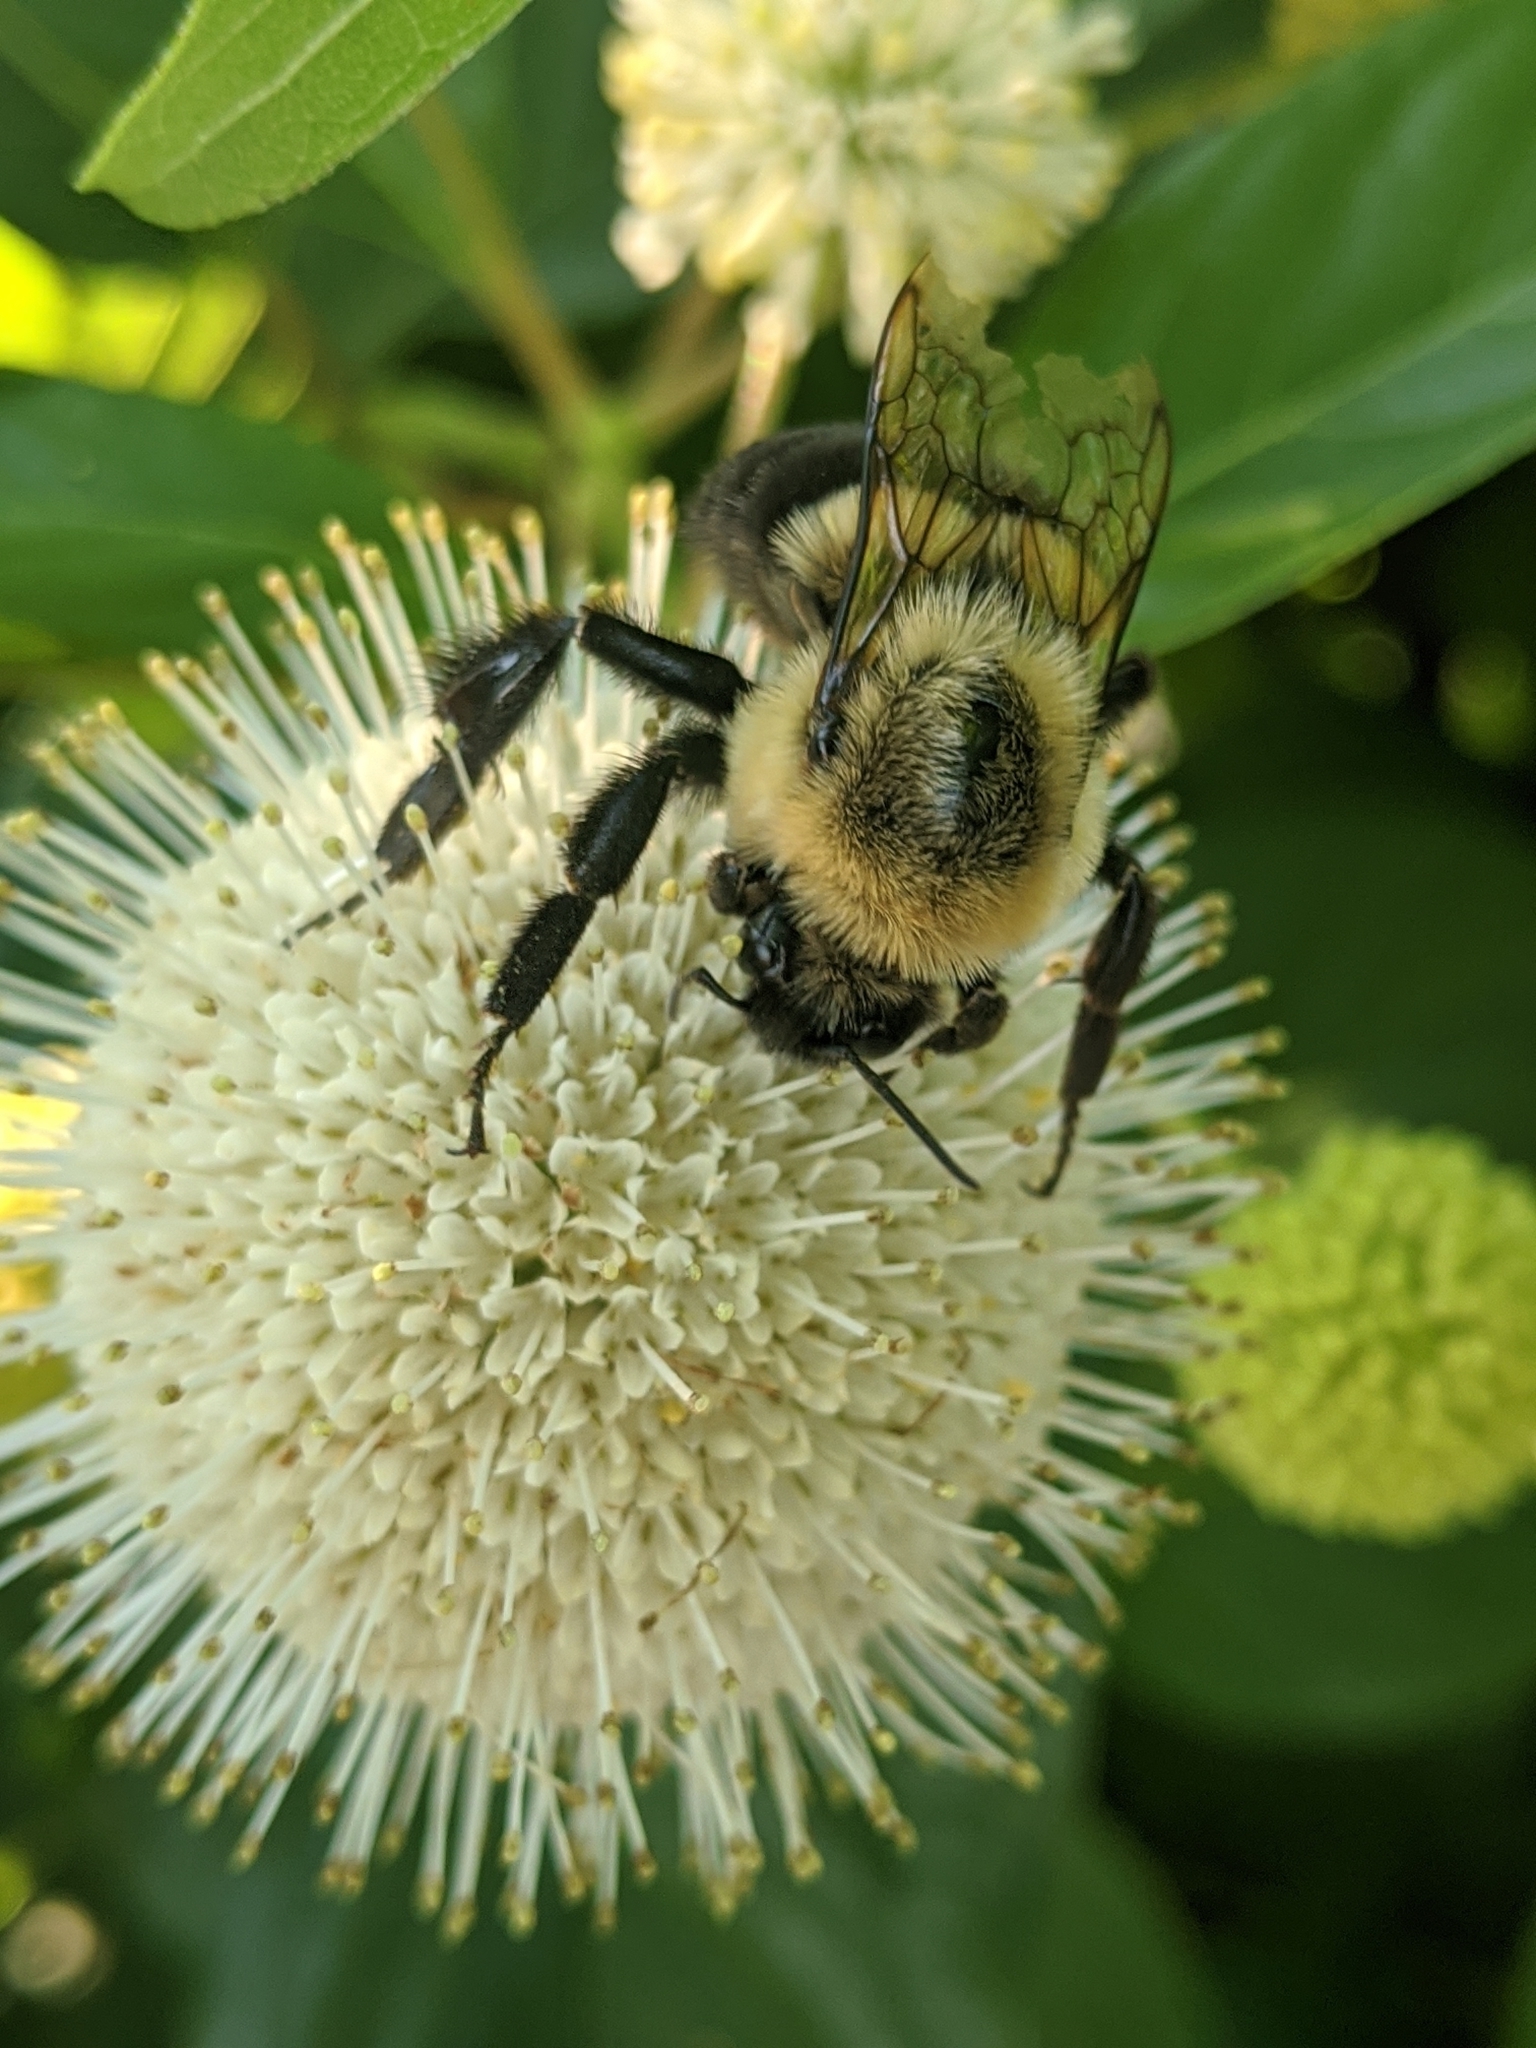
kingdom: Animalia
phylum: Arthropoda
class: Insecta
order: Hymenoptera
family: Apidae
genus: Bombus
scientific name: Bombus impatiens
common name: Common eastern bumble bee
